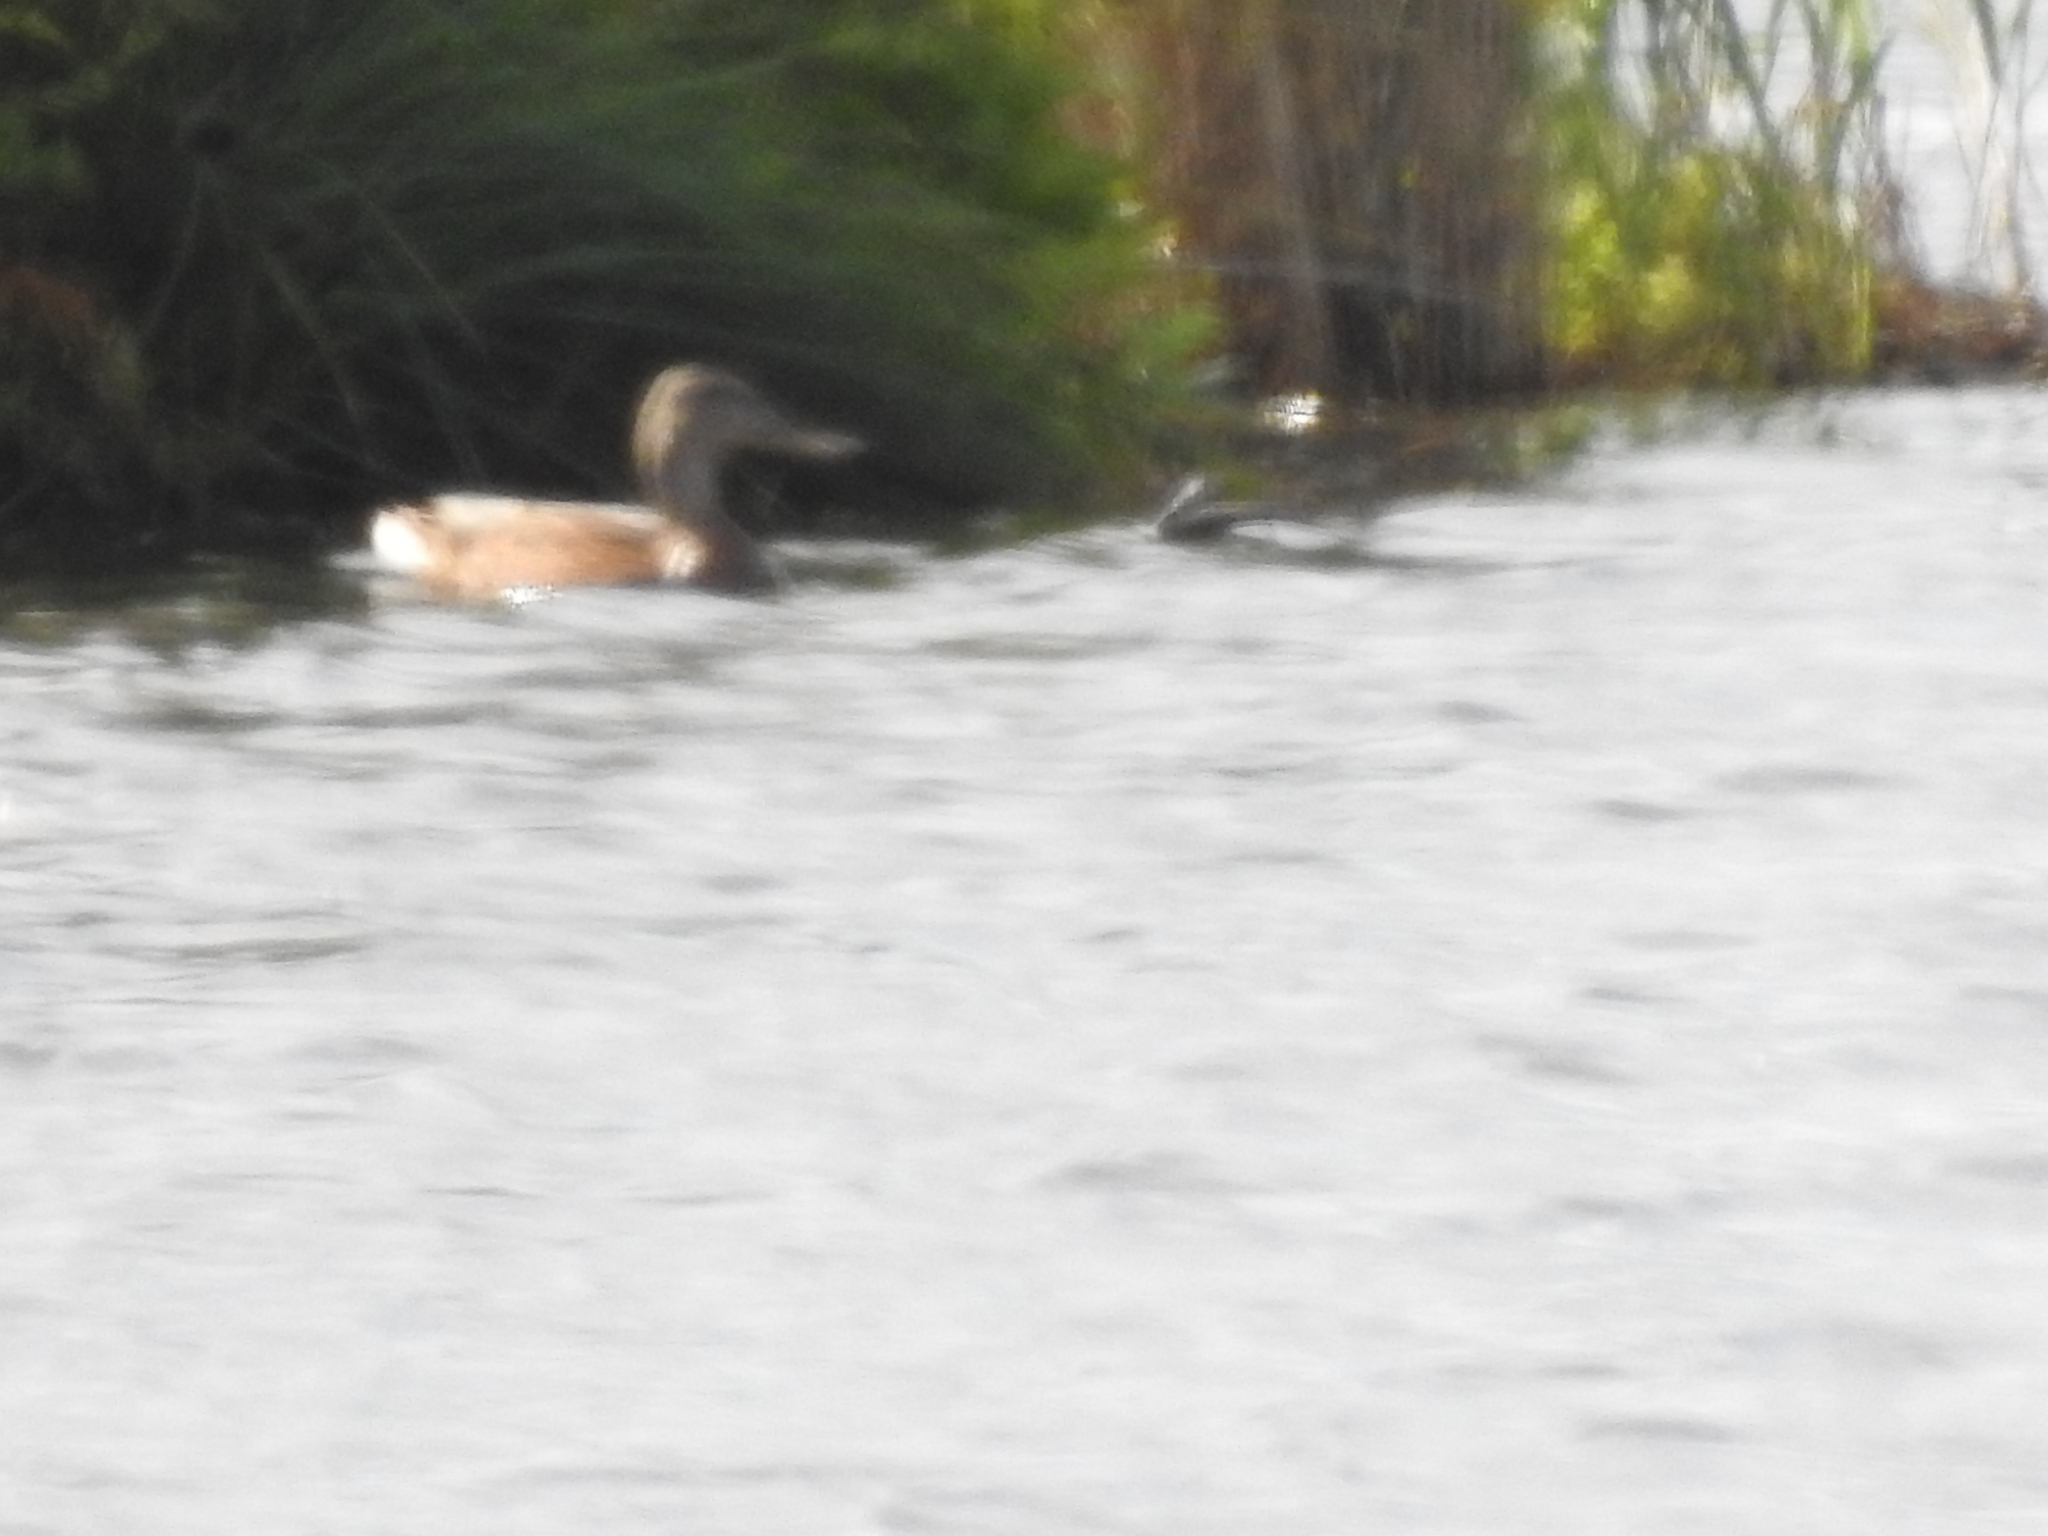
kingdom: Animalia
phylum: Chordata
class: Aves
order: Anseriformes
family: Anatidae
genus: Anas
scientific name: Anas platyrhynchos
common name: Mallard
